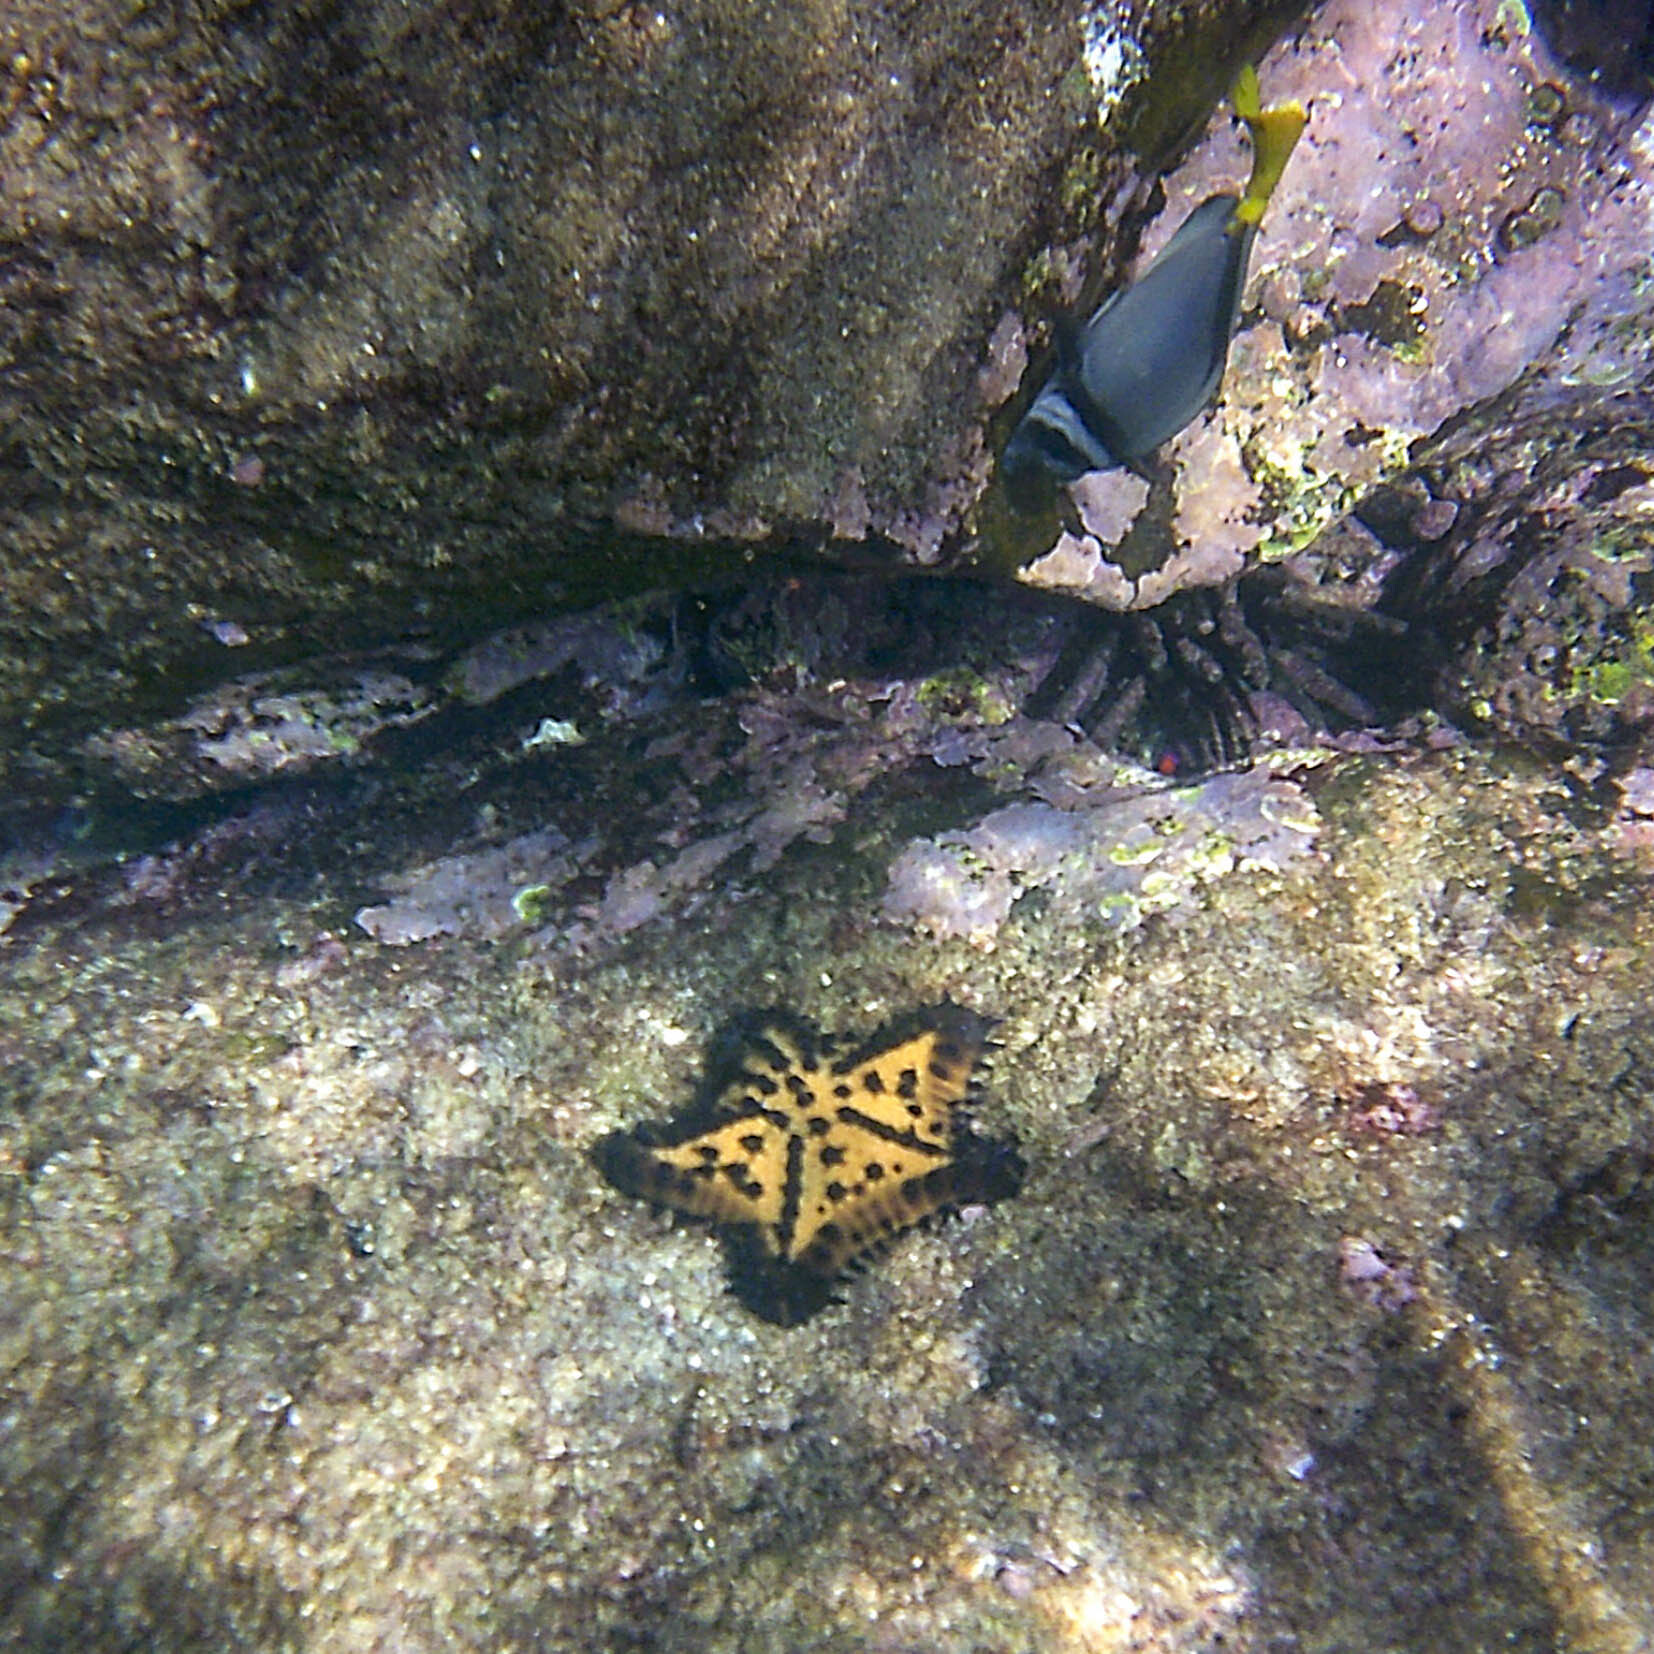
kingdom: Animalia
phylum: Echinodermata
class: Asteroidea
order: Valvatida
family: Oreasteridae
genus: Nidorellia
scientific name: Nidorellia armata
